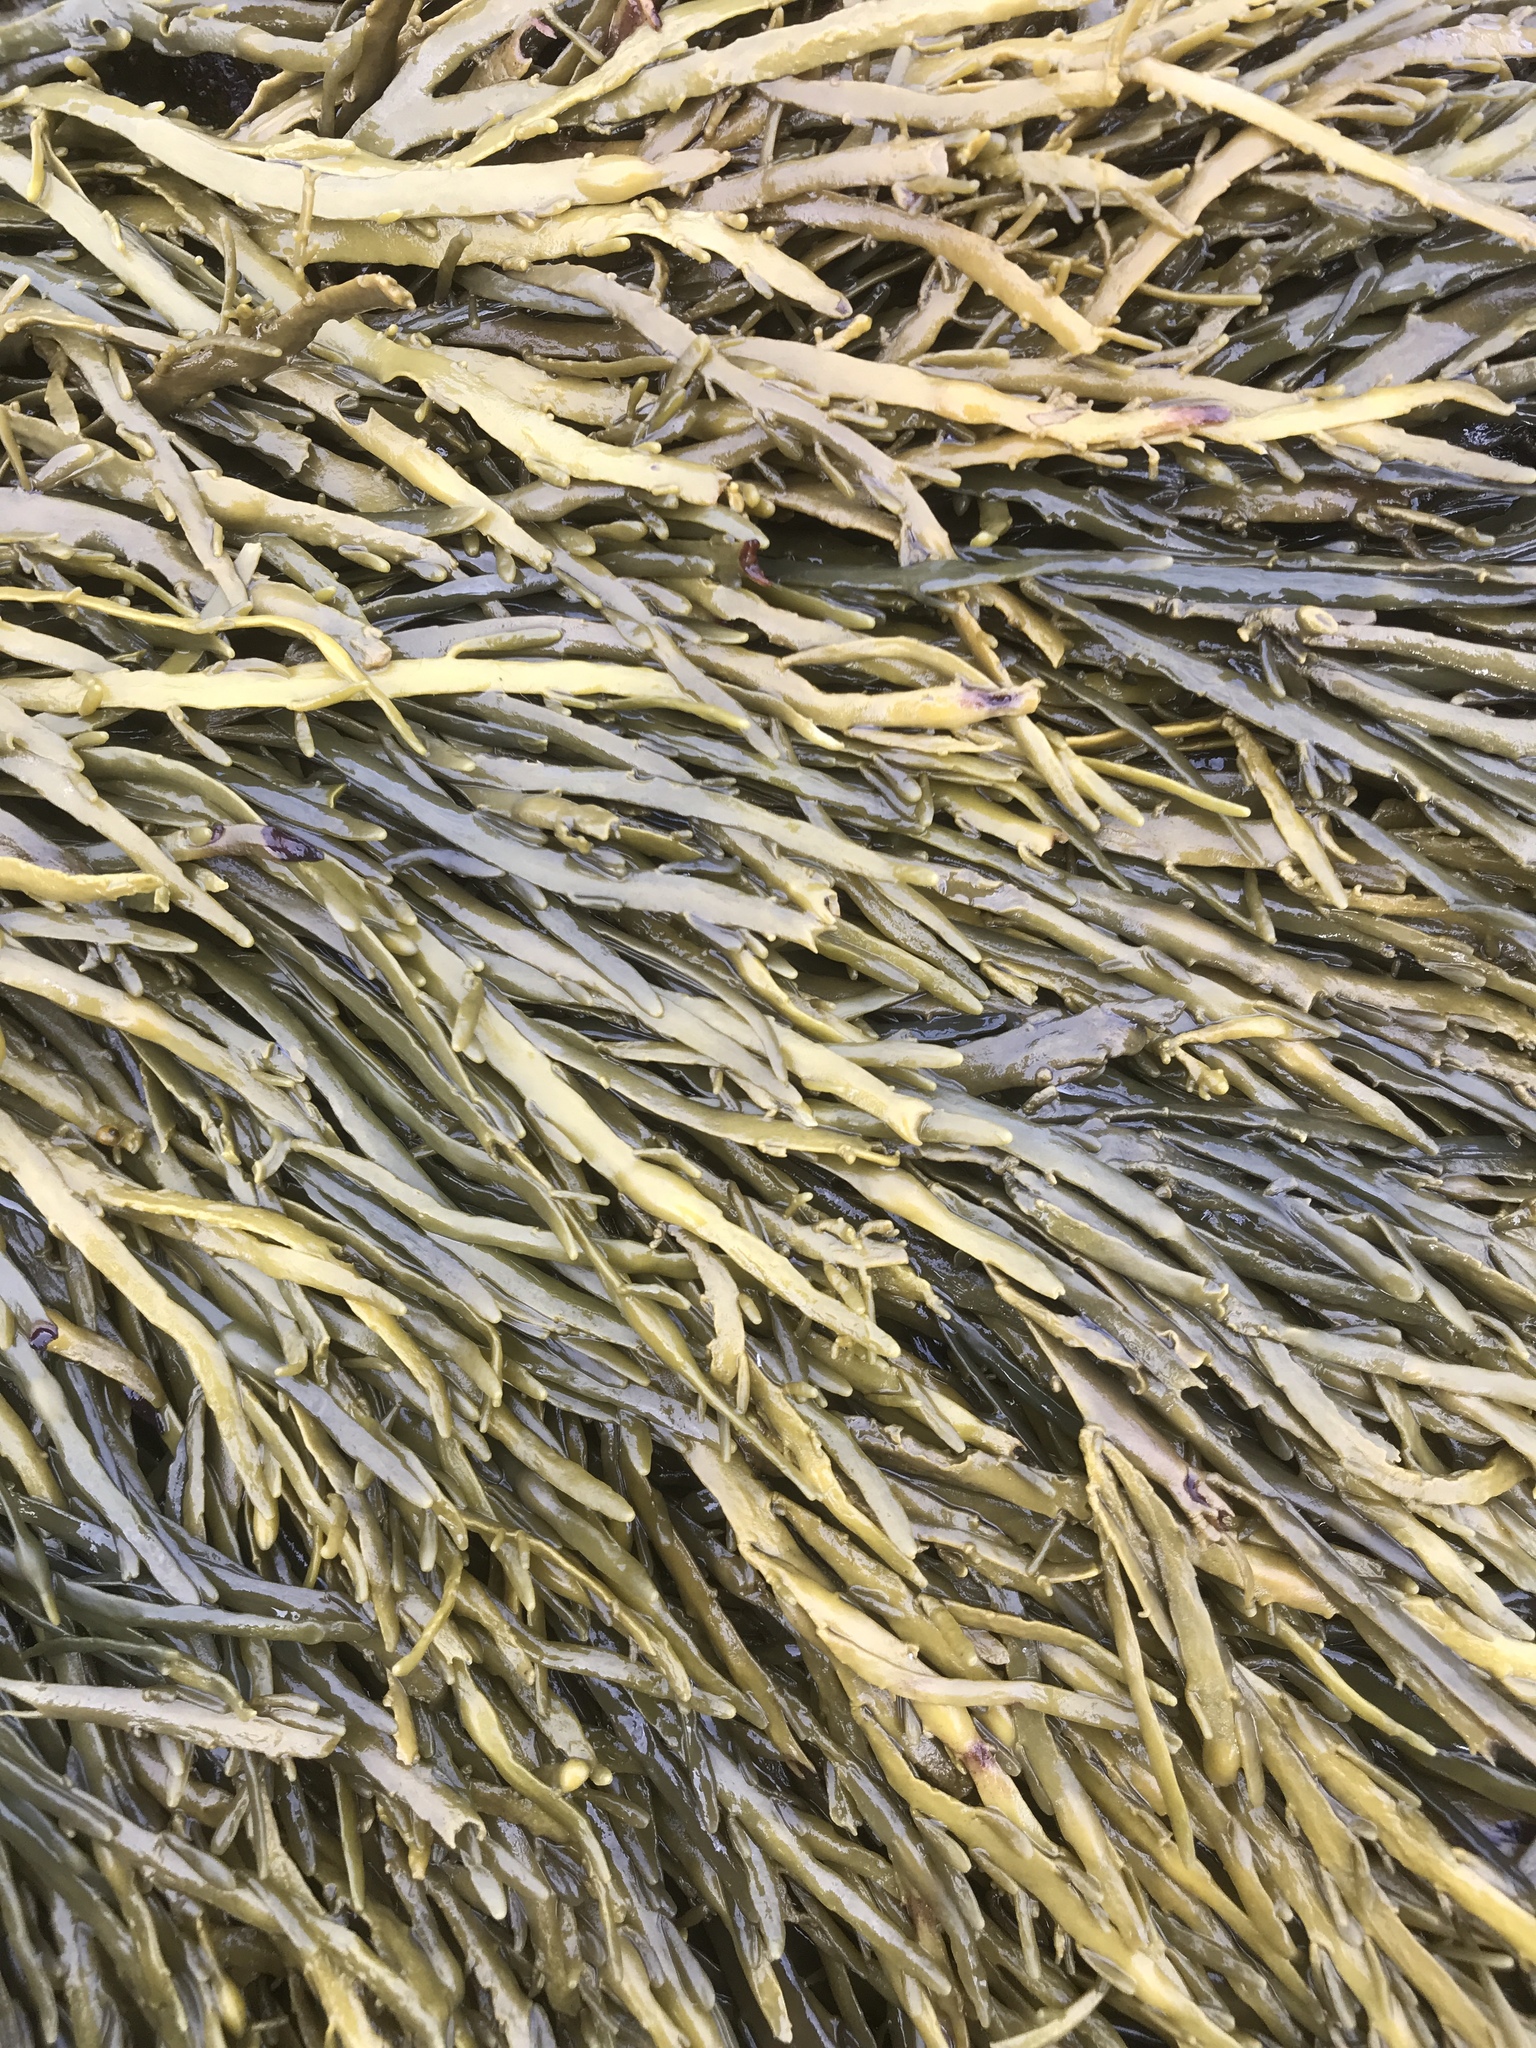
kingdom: Chromista
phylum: Ochrophyta
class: Phaeophyceae
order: Fucales
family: Fucaceae
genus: Ascophyllum
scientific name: Ascophyllum nodosum
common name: Knotted wrack
